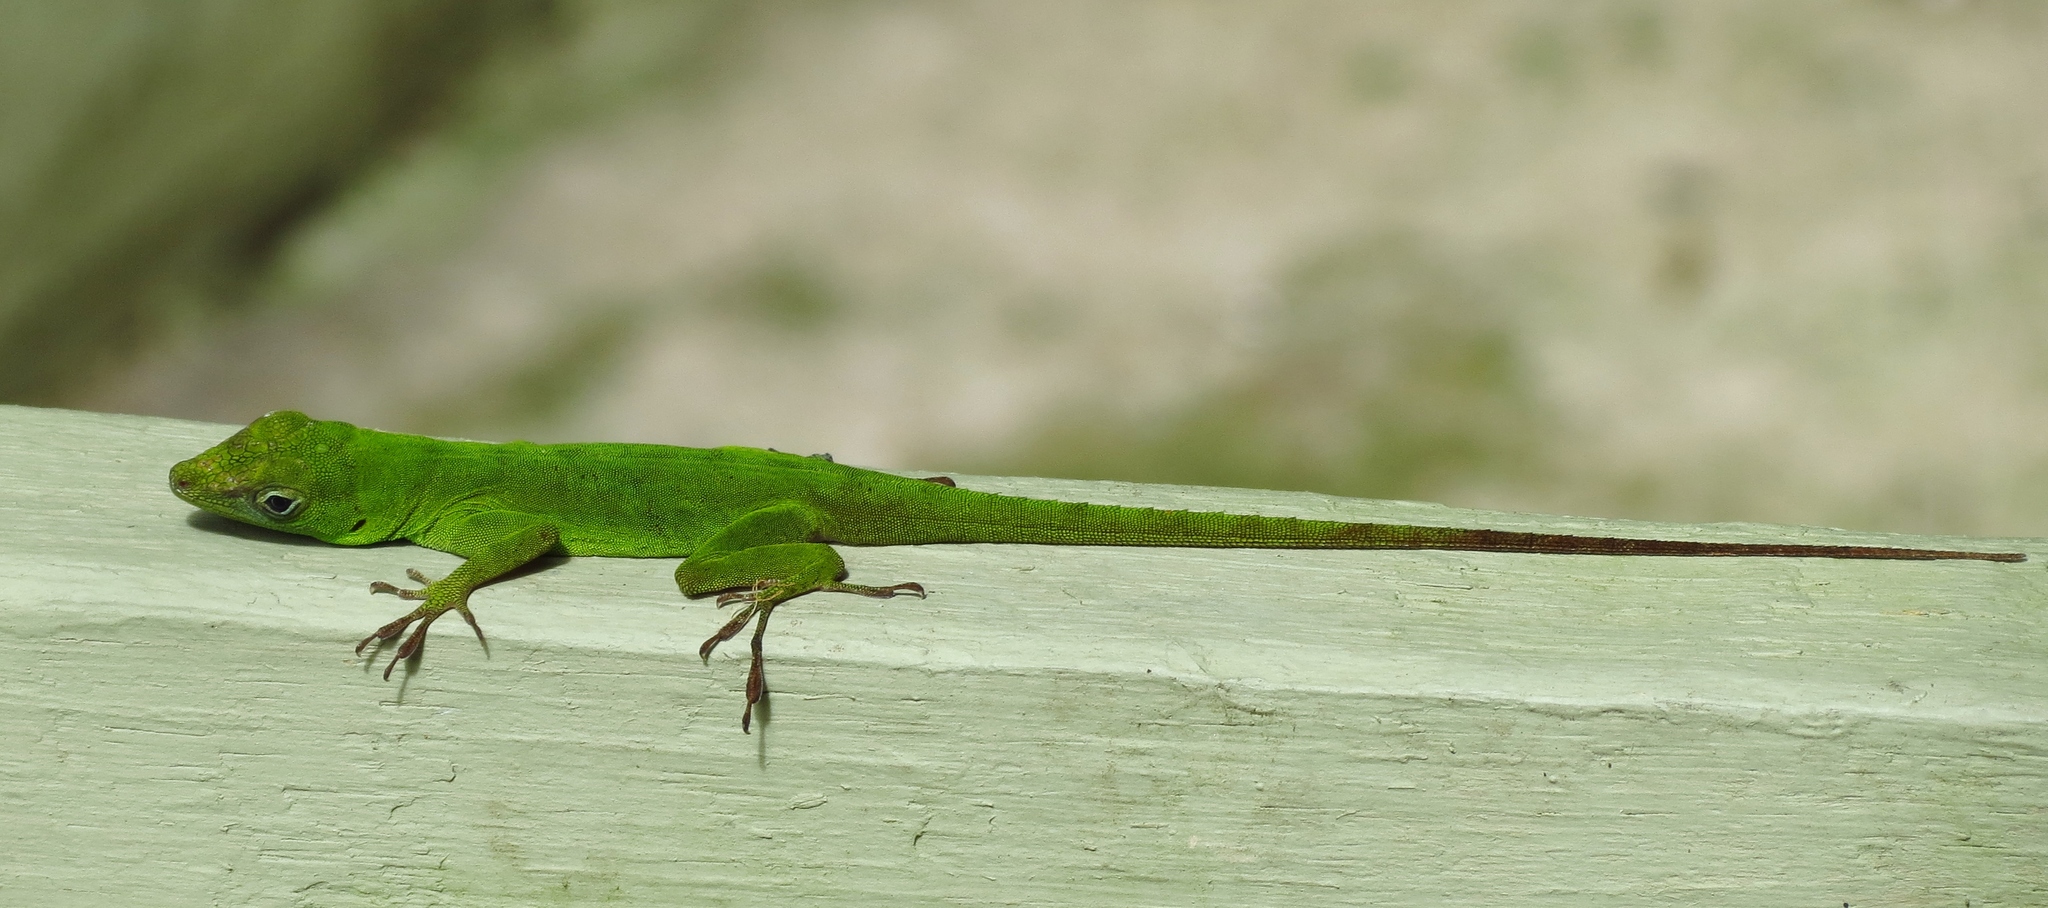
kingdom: Animalia
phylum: Chordata
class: Squamata
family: Dactyloidae
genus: Anolis
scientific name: Anolis evermanni
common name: Emerald anole
